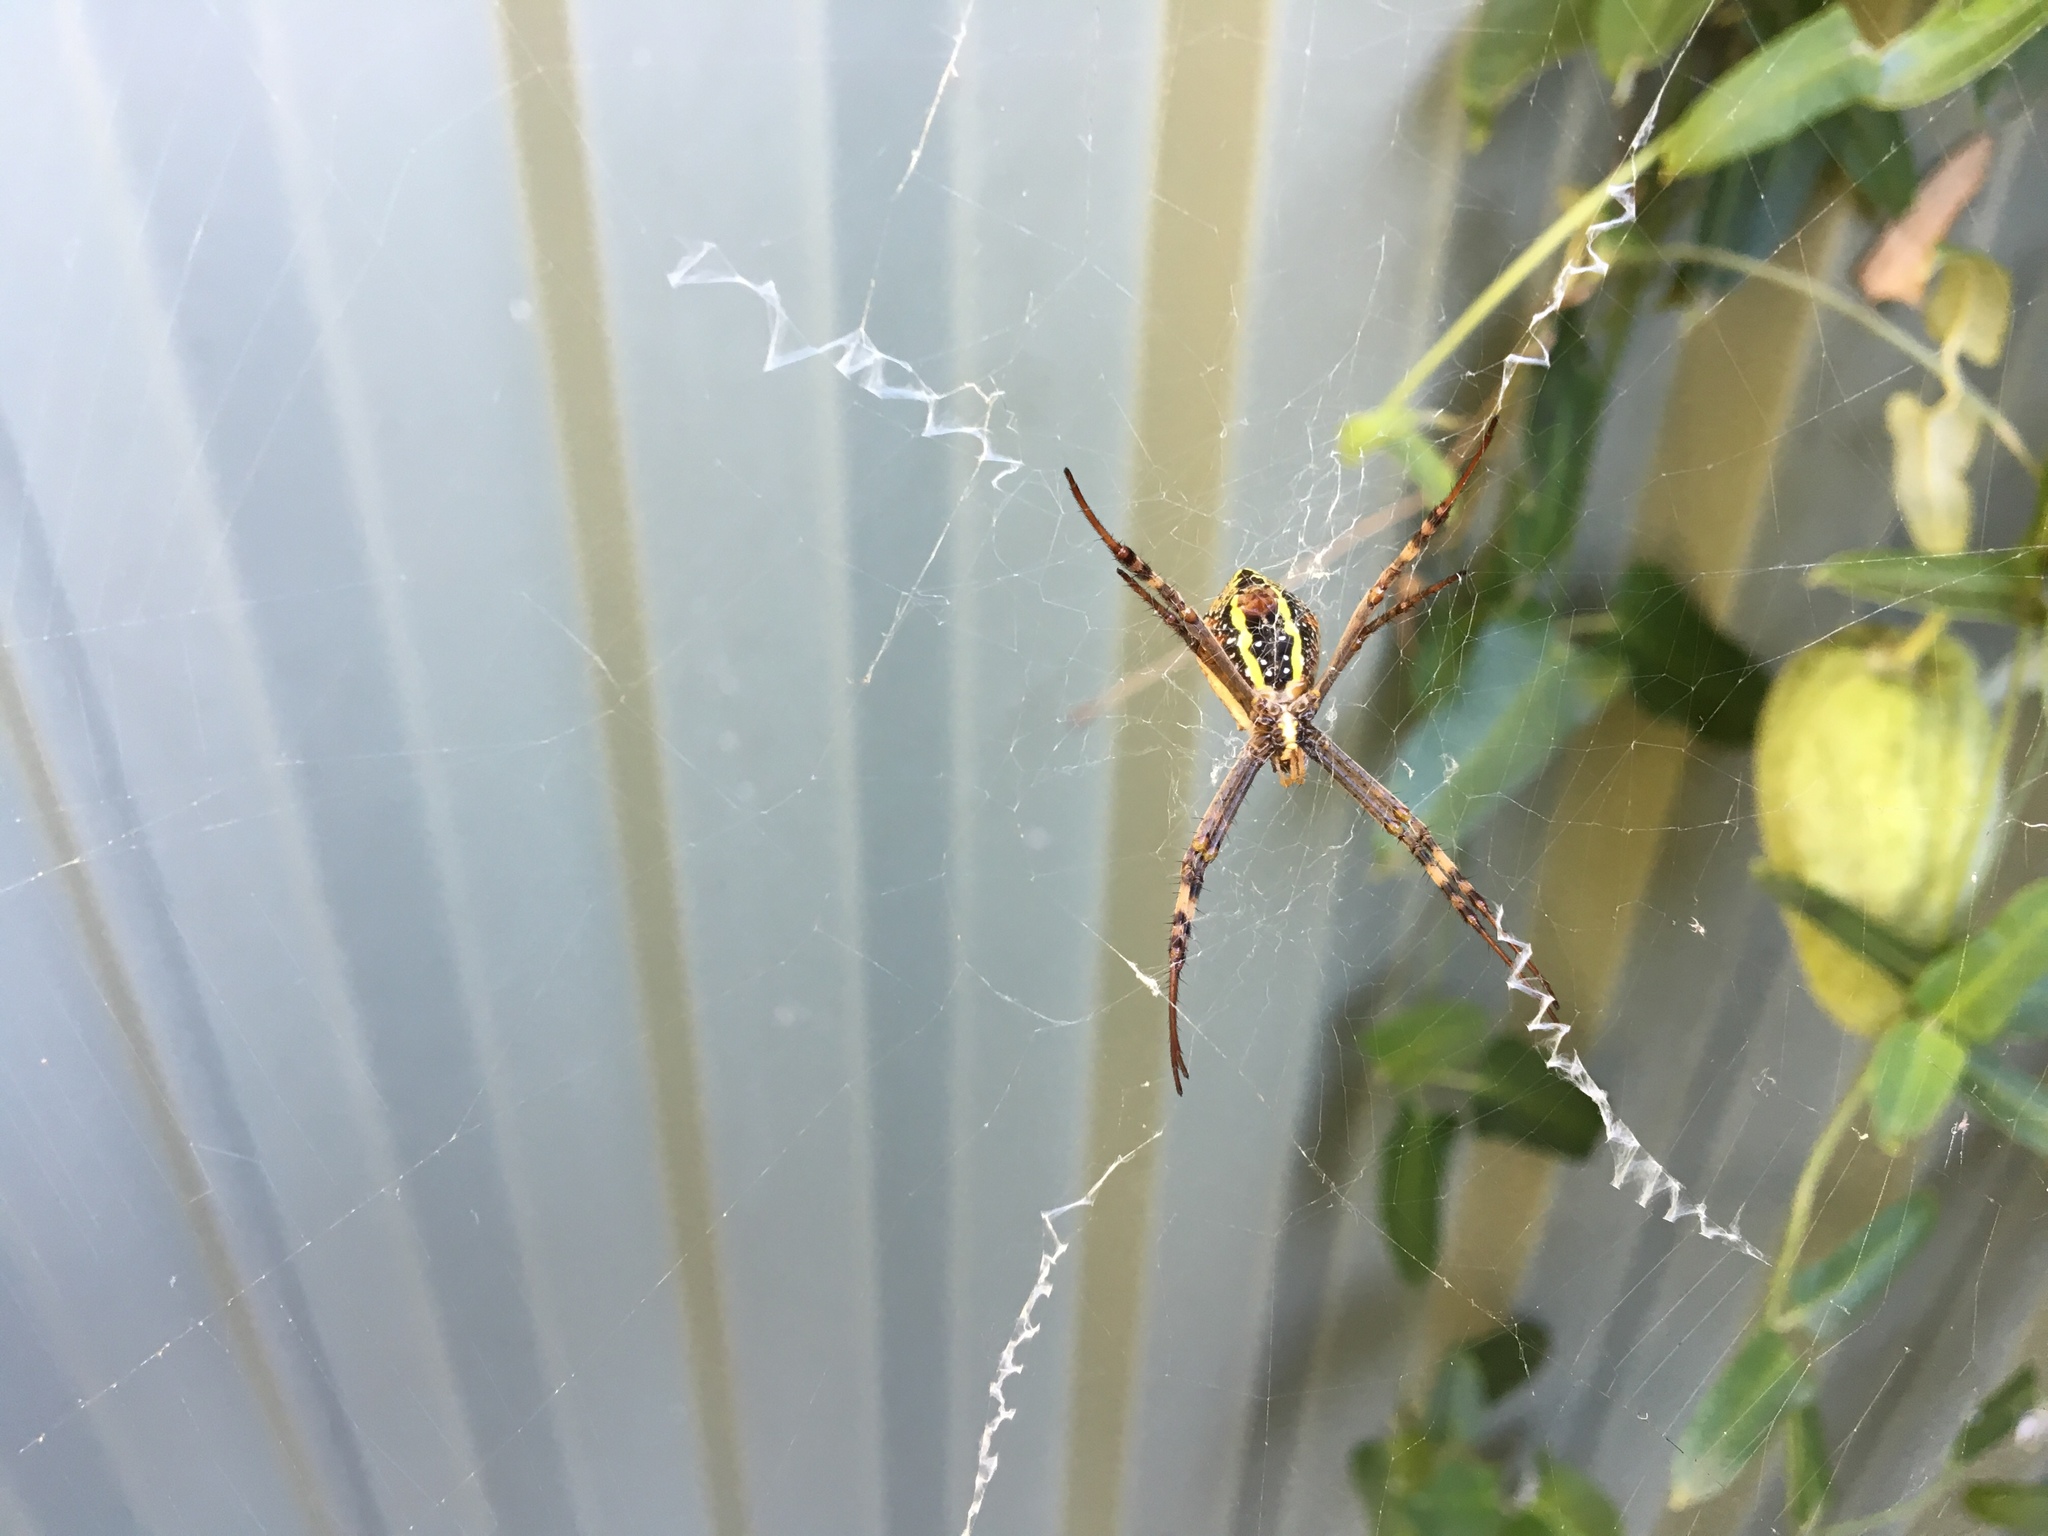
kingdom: Animalia
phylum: Arthropoda
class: Arachnida
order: Araneae
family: Araneidae
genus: Argiope
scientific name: Argiope keyserlingi
